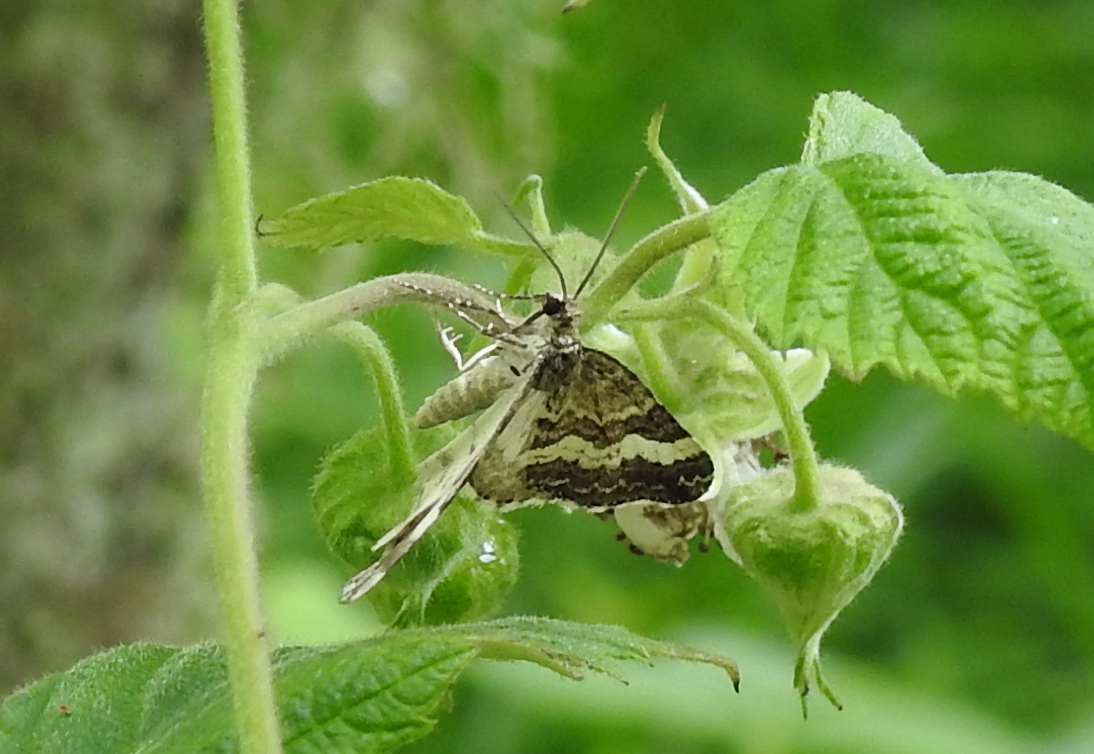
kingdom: Animalia
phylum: Arthropoda
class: Insecta
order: Lepidoptera
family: Geometridae
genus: Epirrhoe
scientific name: Epirrhoe alternata
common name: Common carpet
